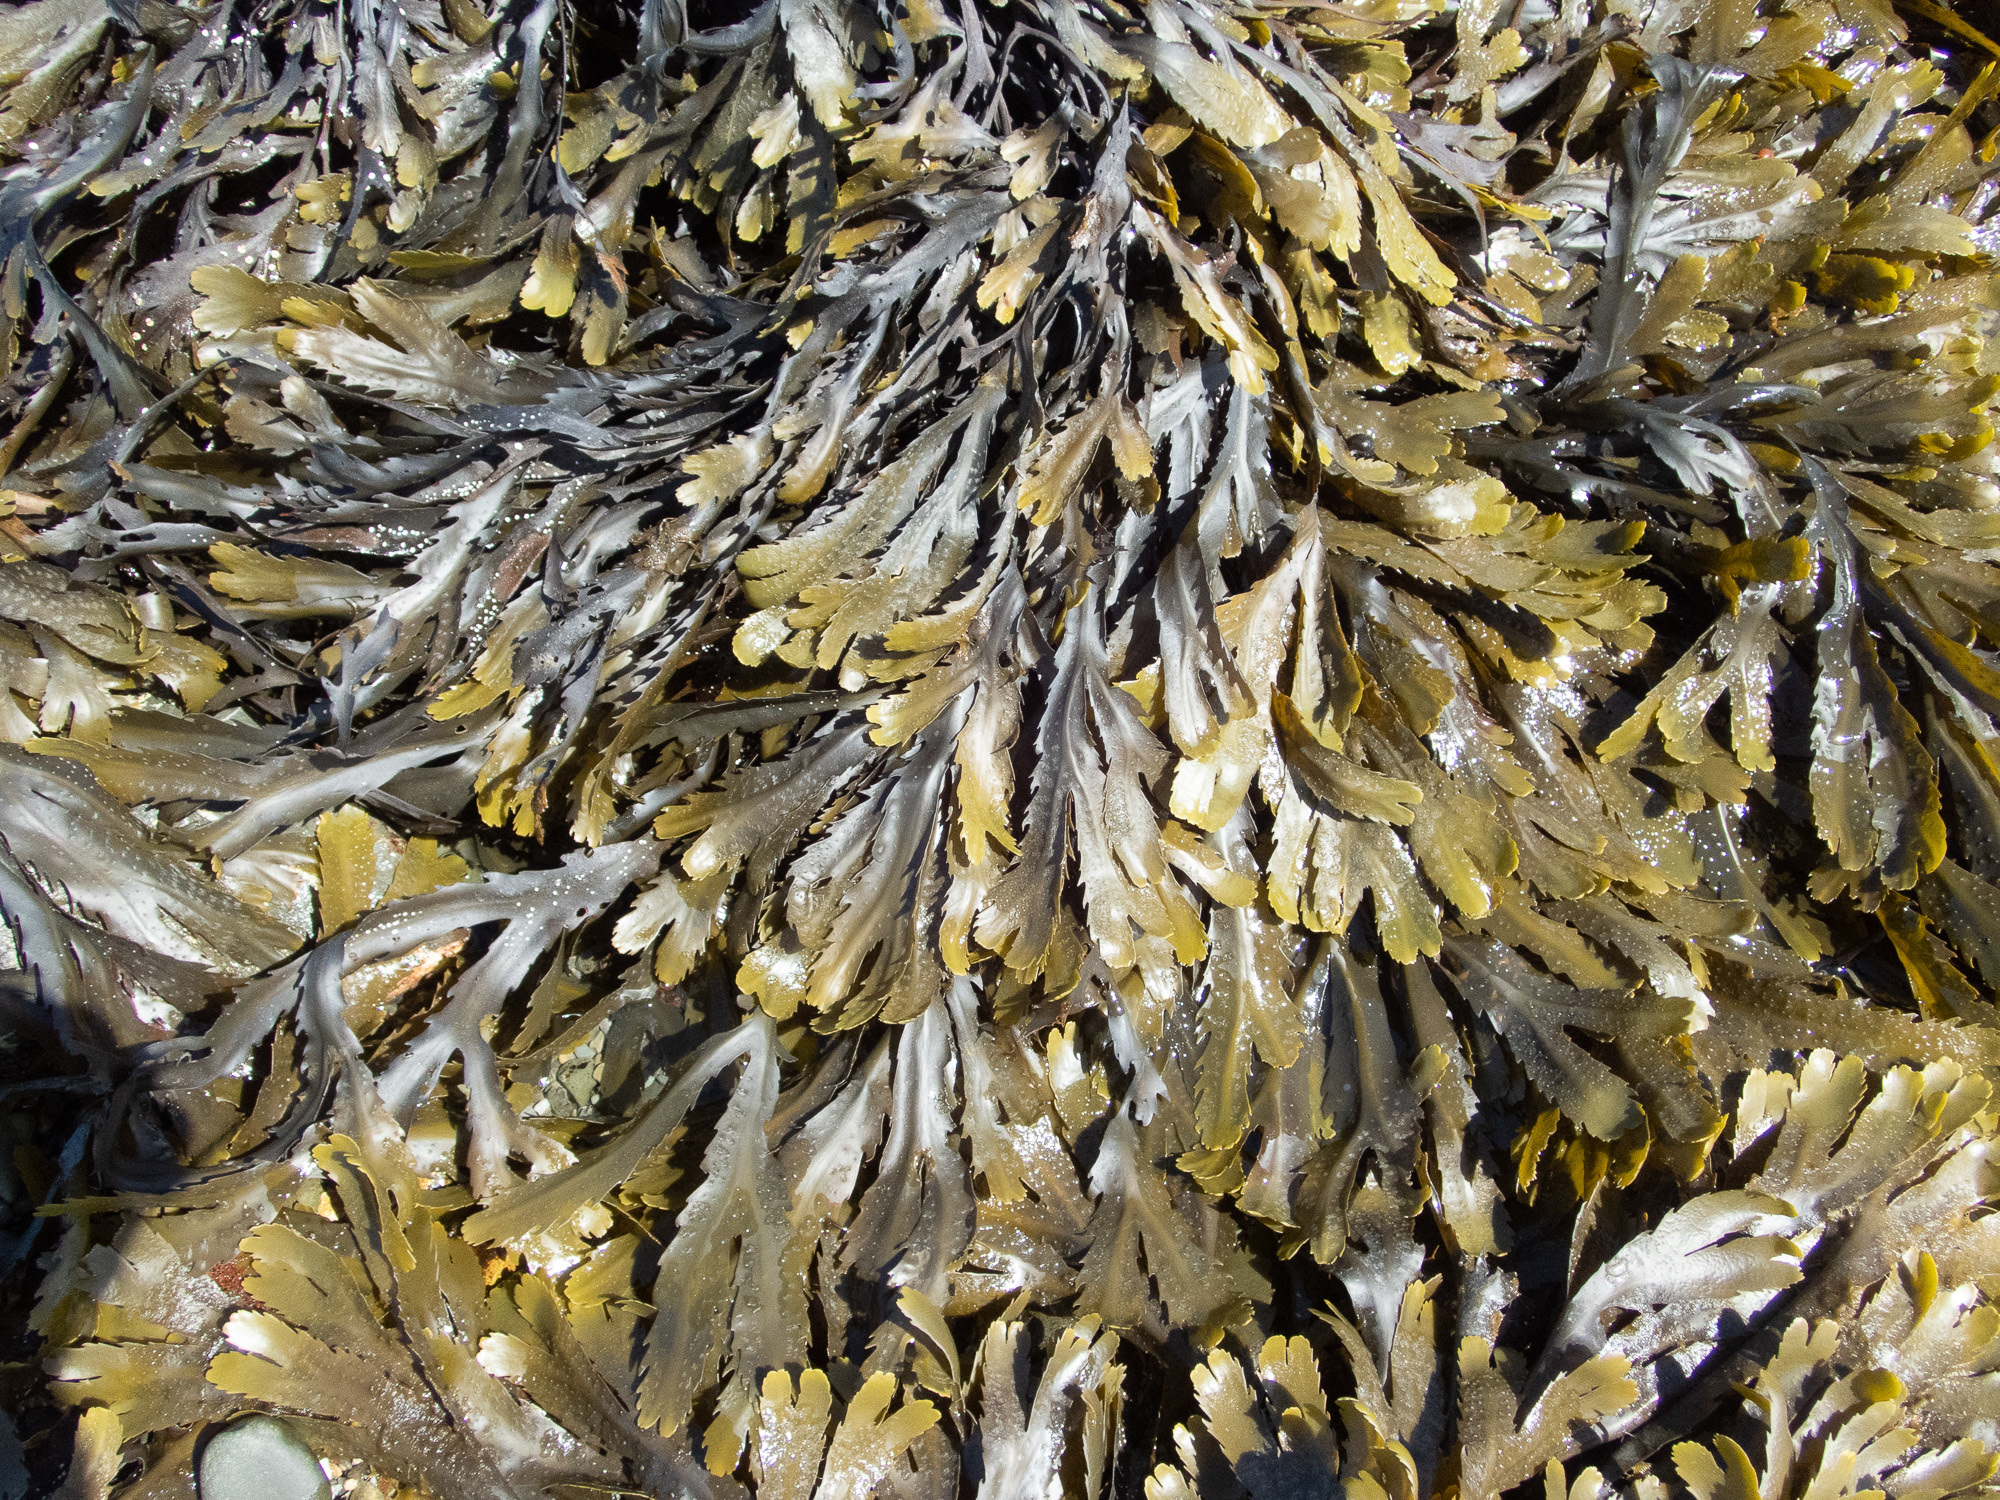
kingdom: Chromista
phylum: Ochrophyta
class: Phaeophyceae
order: Fucales
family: Fucaceae
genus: Fucus
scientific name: Fucus serratus
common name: Toothed wrack
